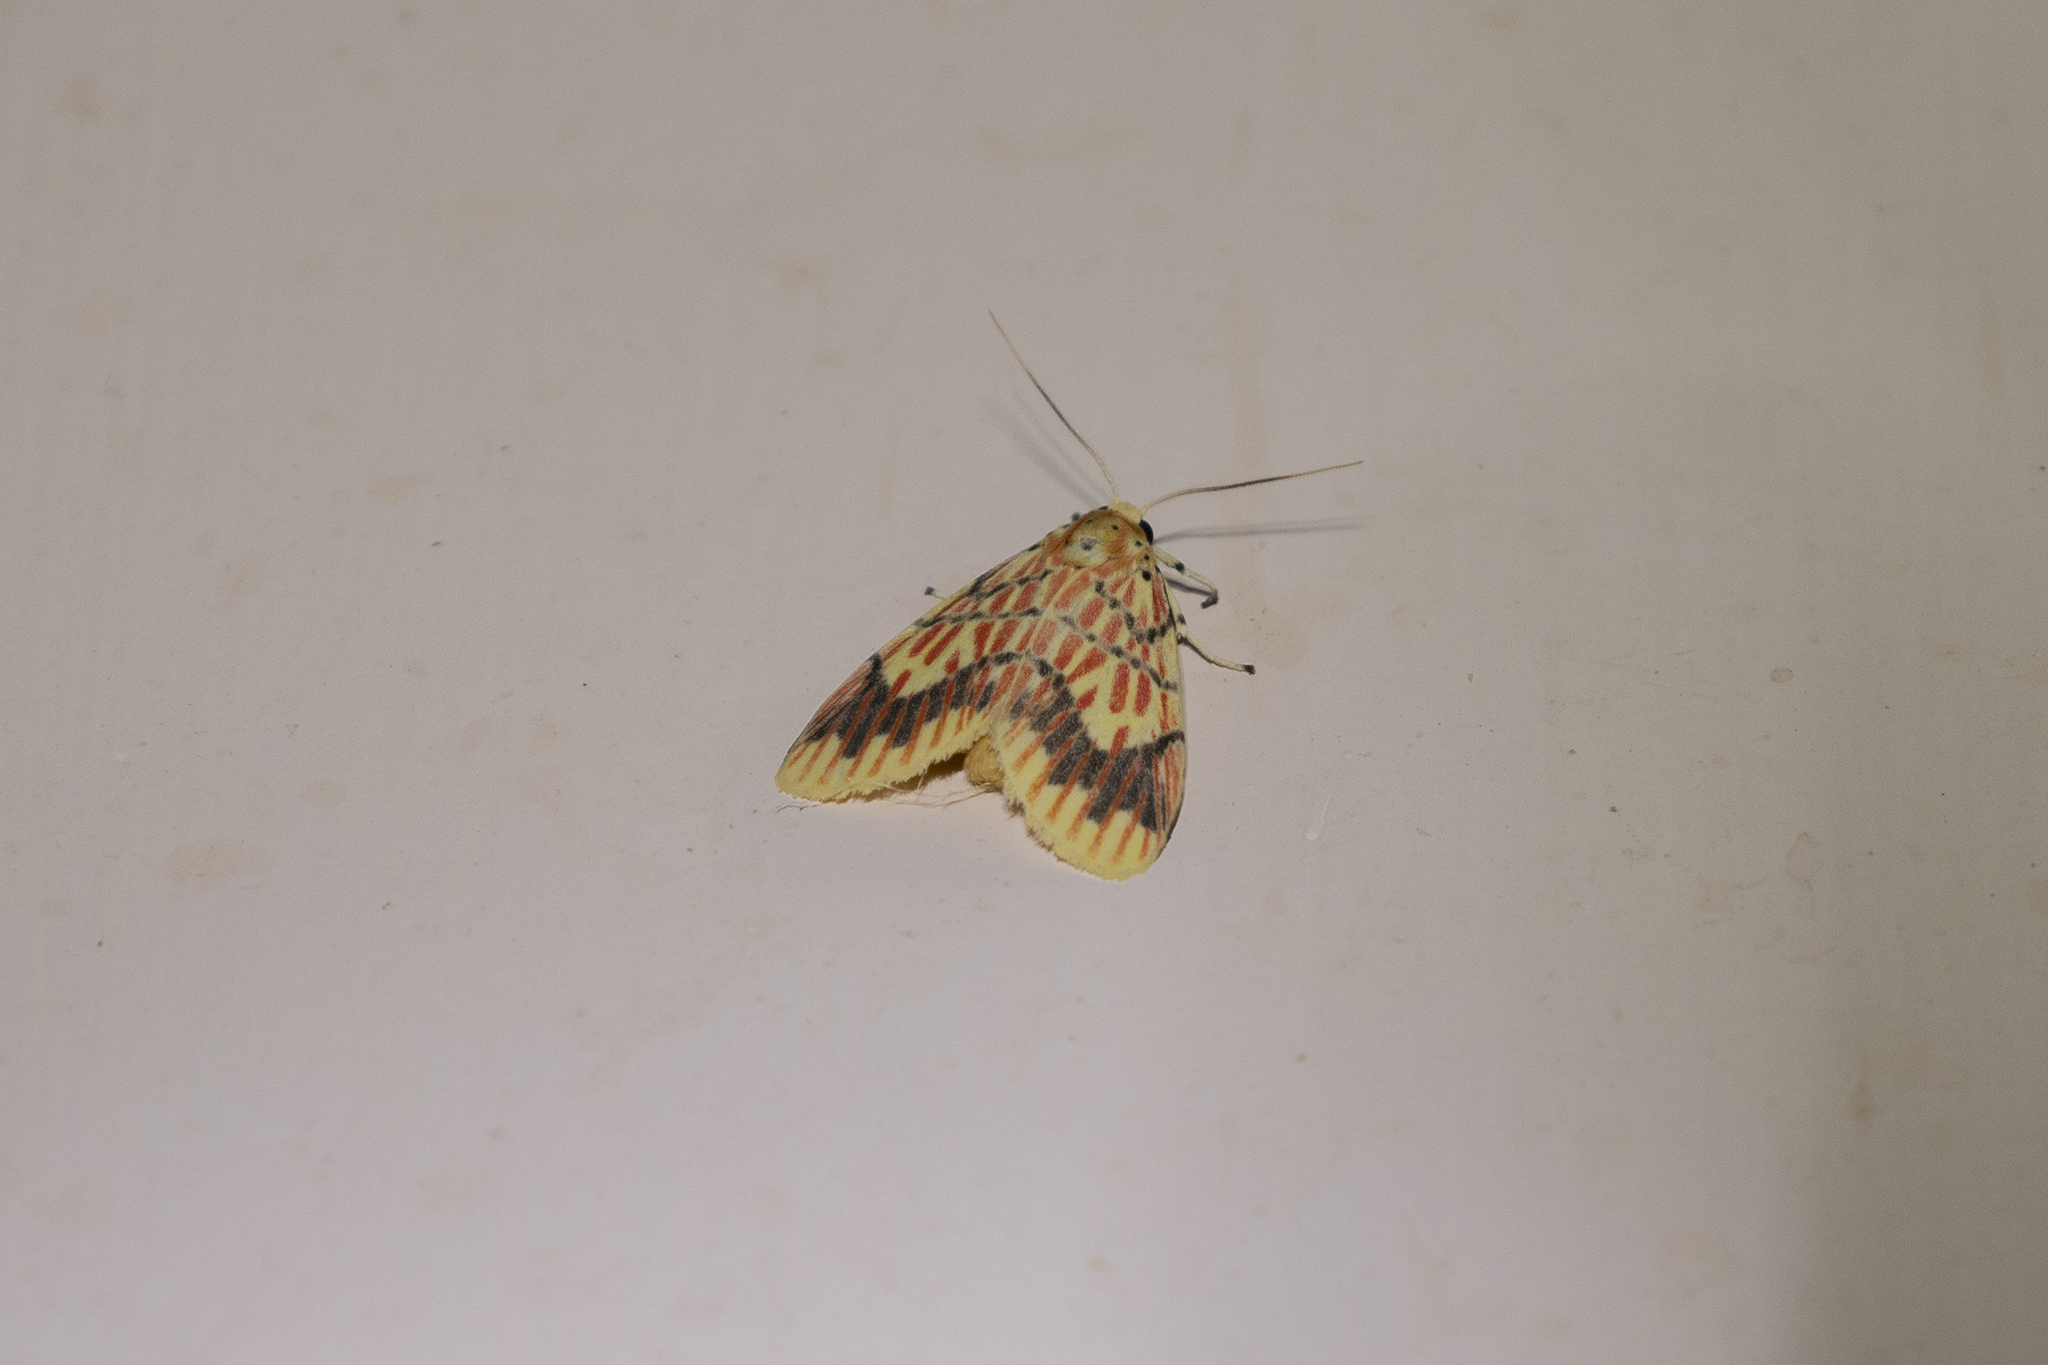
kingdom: Animalia
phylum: Arthropoda
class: Insecta
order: Lepidoptera
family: Erebidae
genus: Barsine
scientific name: Barsine defecta
